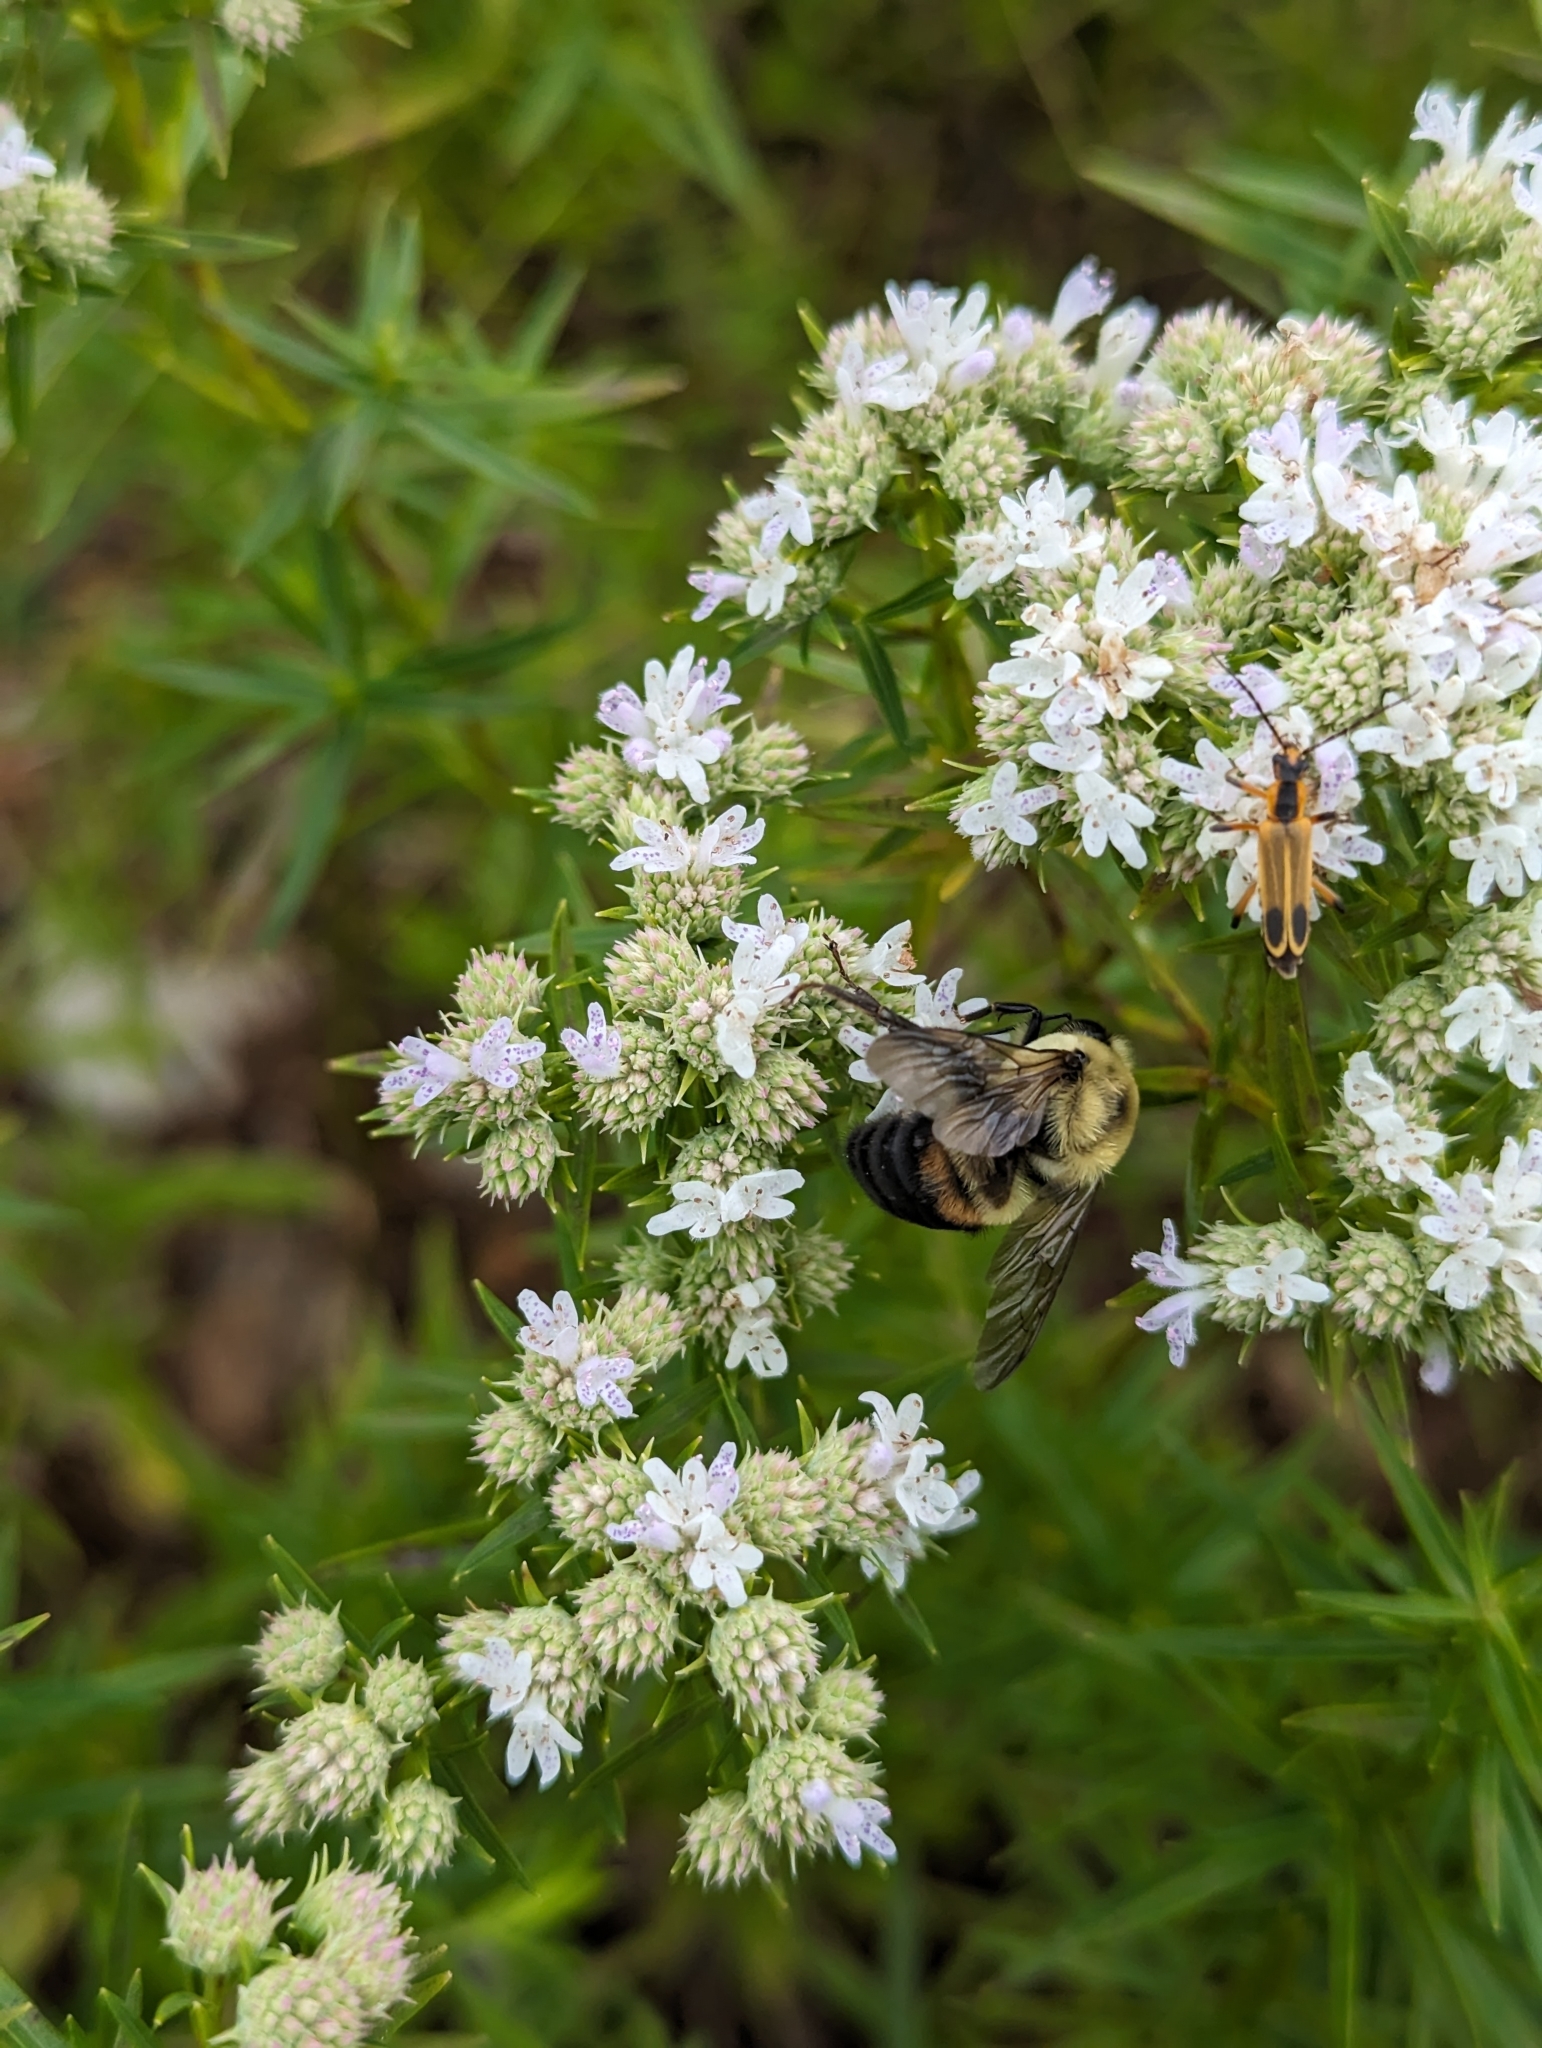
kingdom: Animalia
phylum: Arthropoda
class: Insecta
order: Hymenoptera
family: Apidae
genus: Bombus
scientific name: Bombus griseocollis
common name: Brown-belted bumble bee
